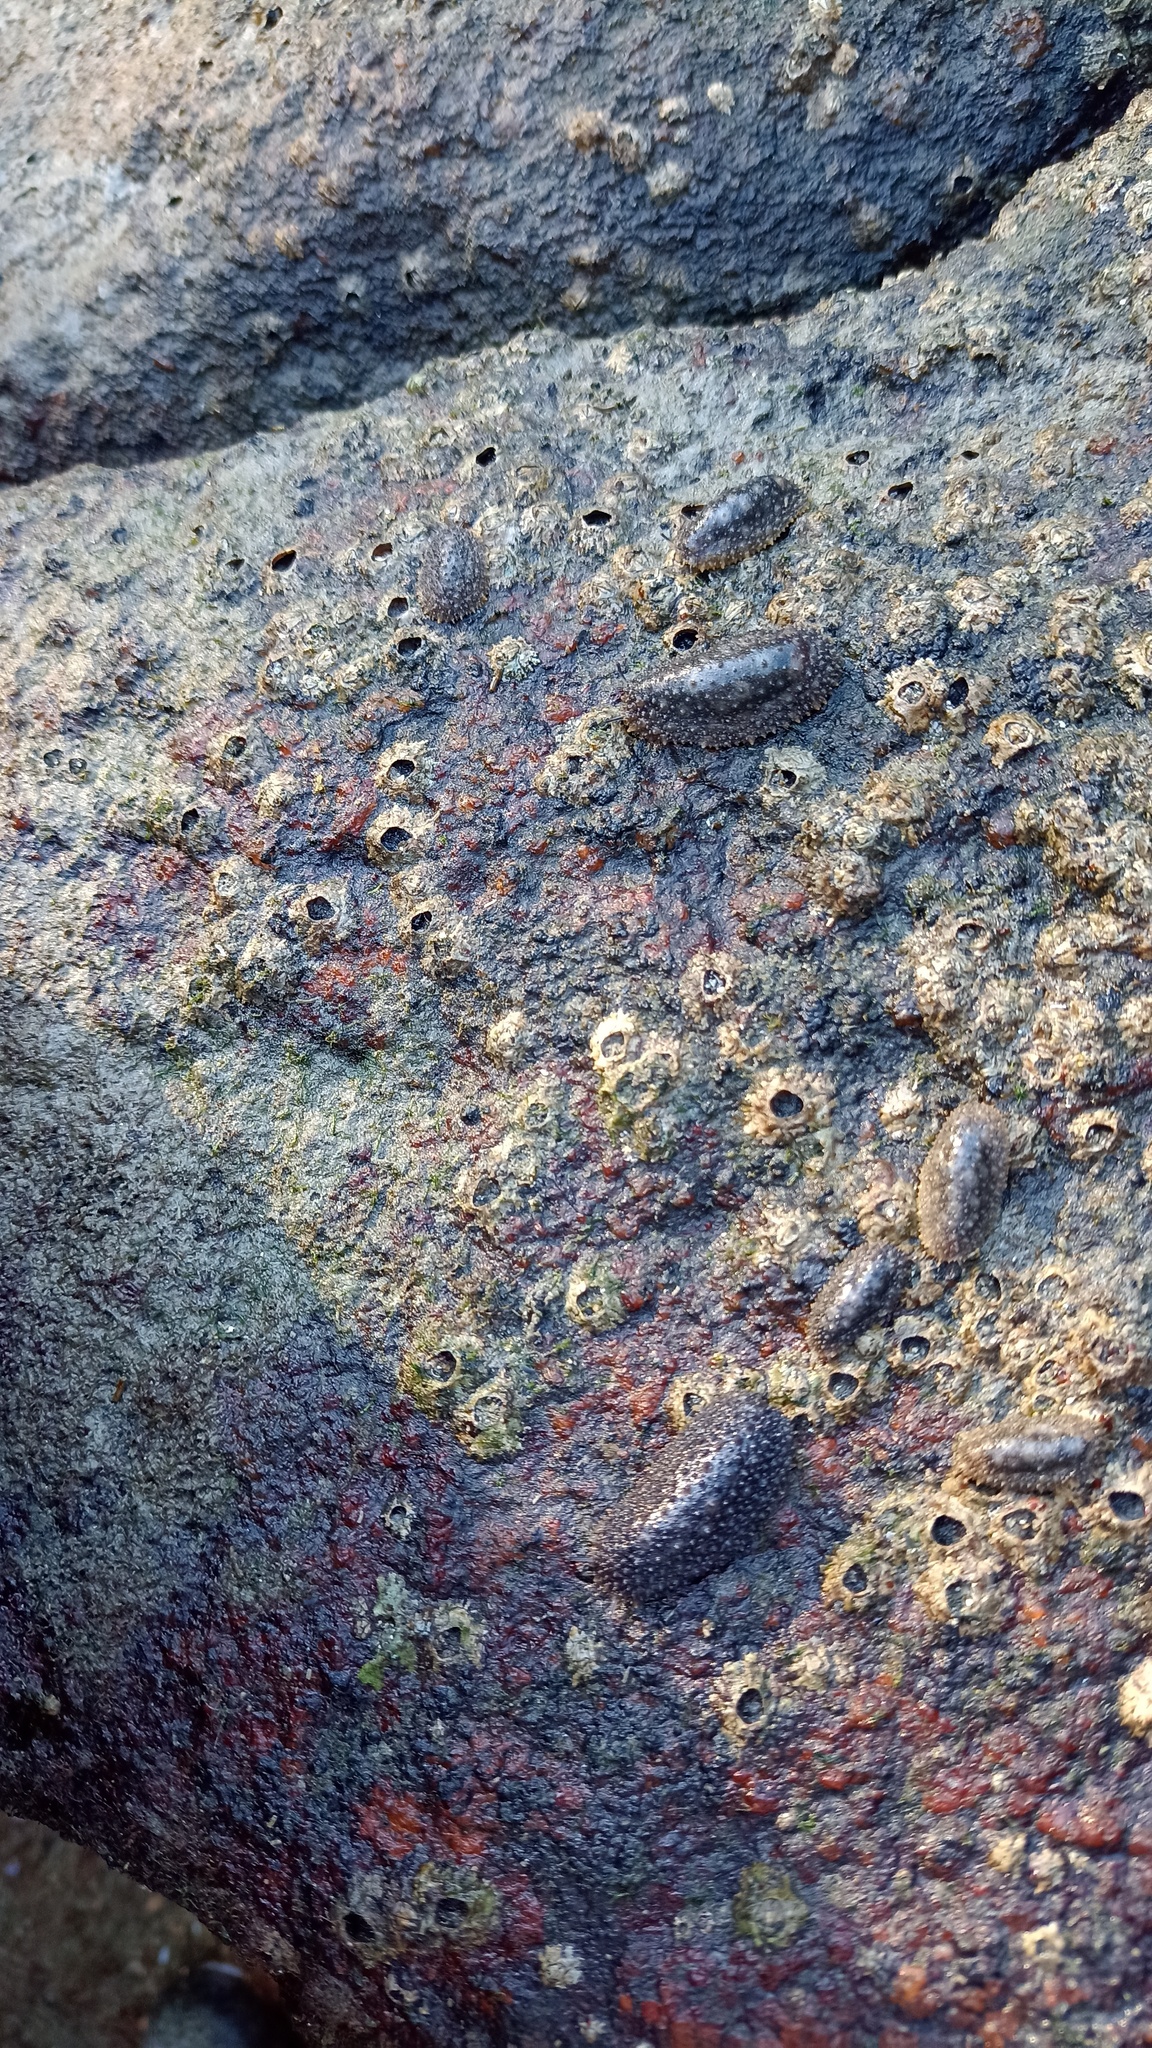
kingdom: Animalia
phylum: Mollusca
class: Gastropoda
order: Systellommatophora
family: Onchidiidae
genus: Onchidella
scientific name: Onchidella incisa
